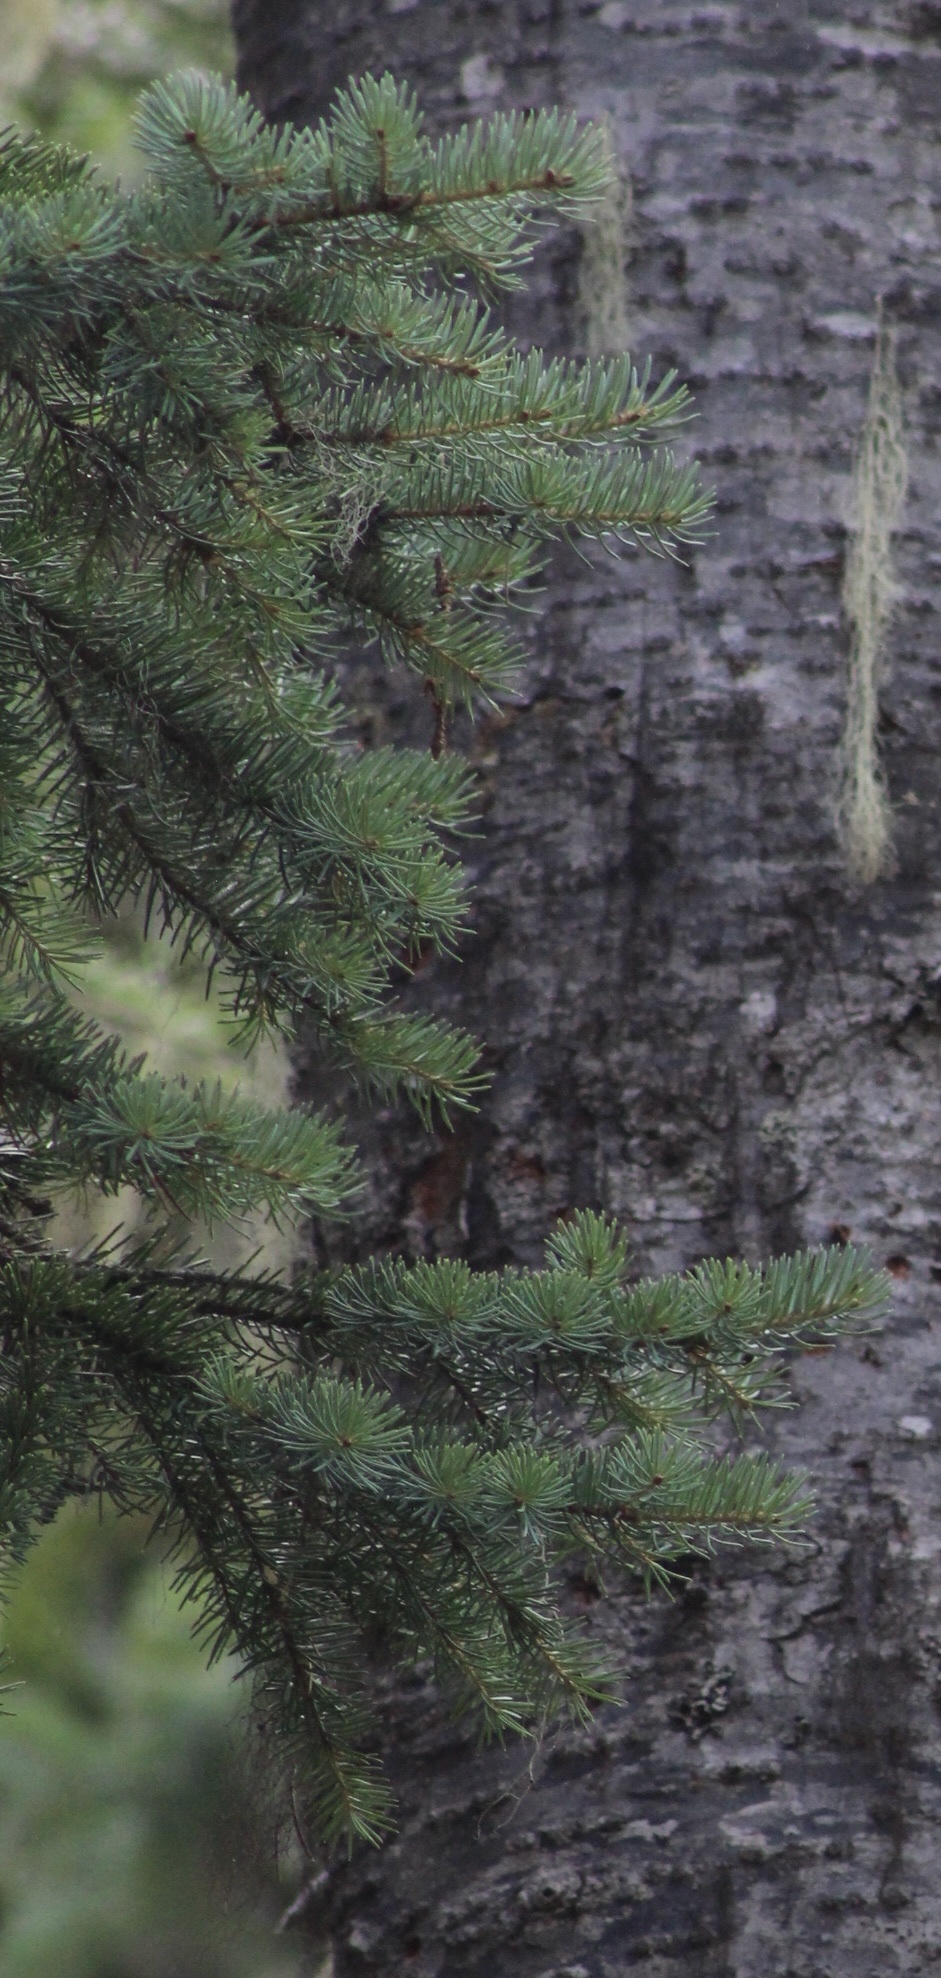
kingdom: Plantae
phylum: Tracheophyta
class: Pinopsida
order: Pinales
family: Pinaceae
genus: Abies
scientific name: Abies lasiocarpa
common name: Subalpine fir
